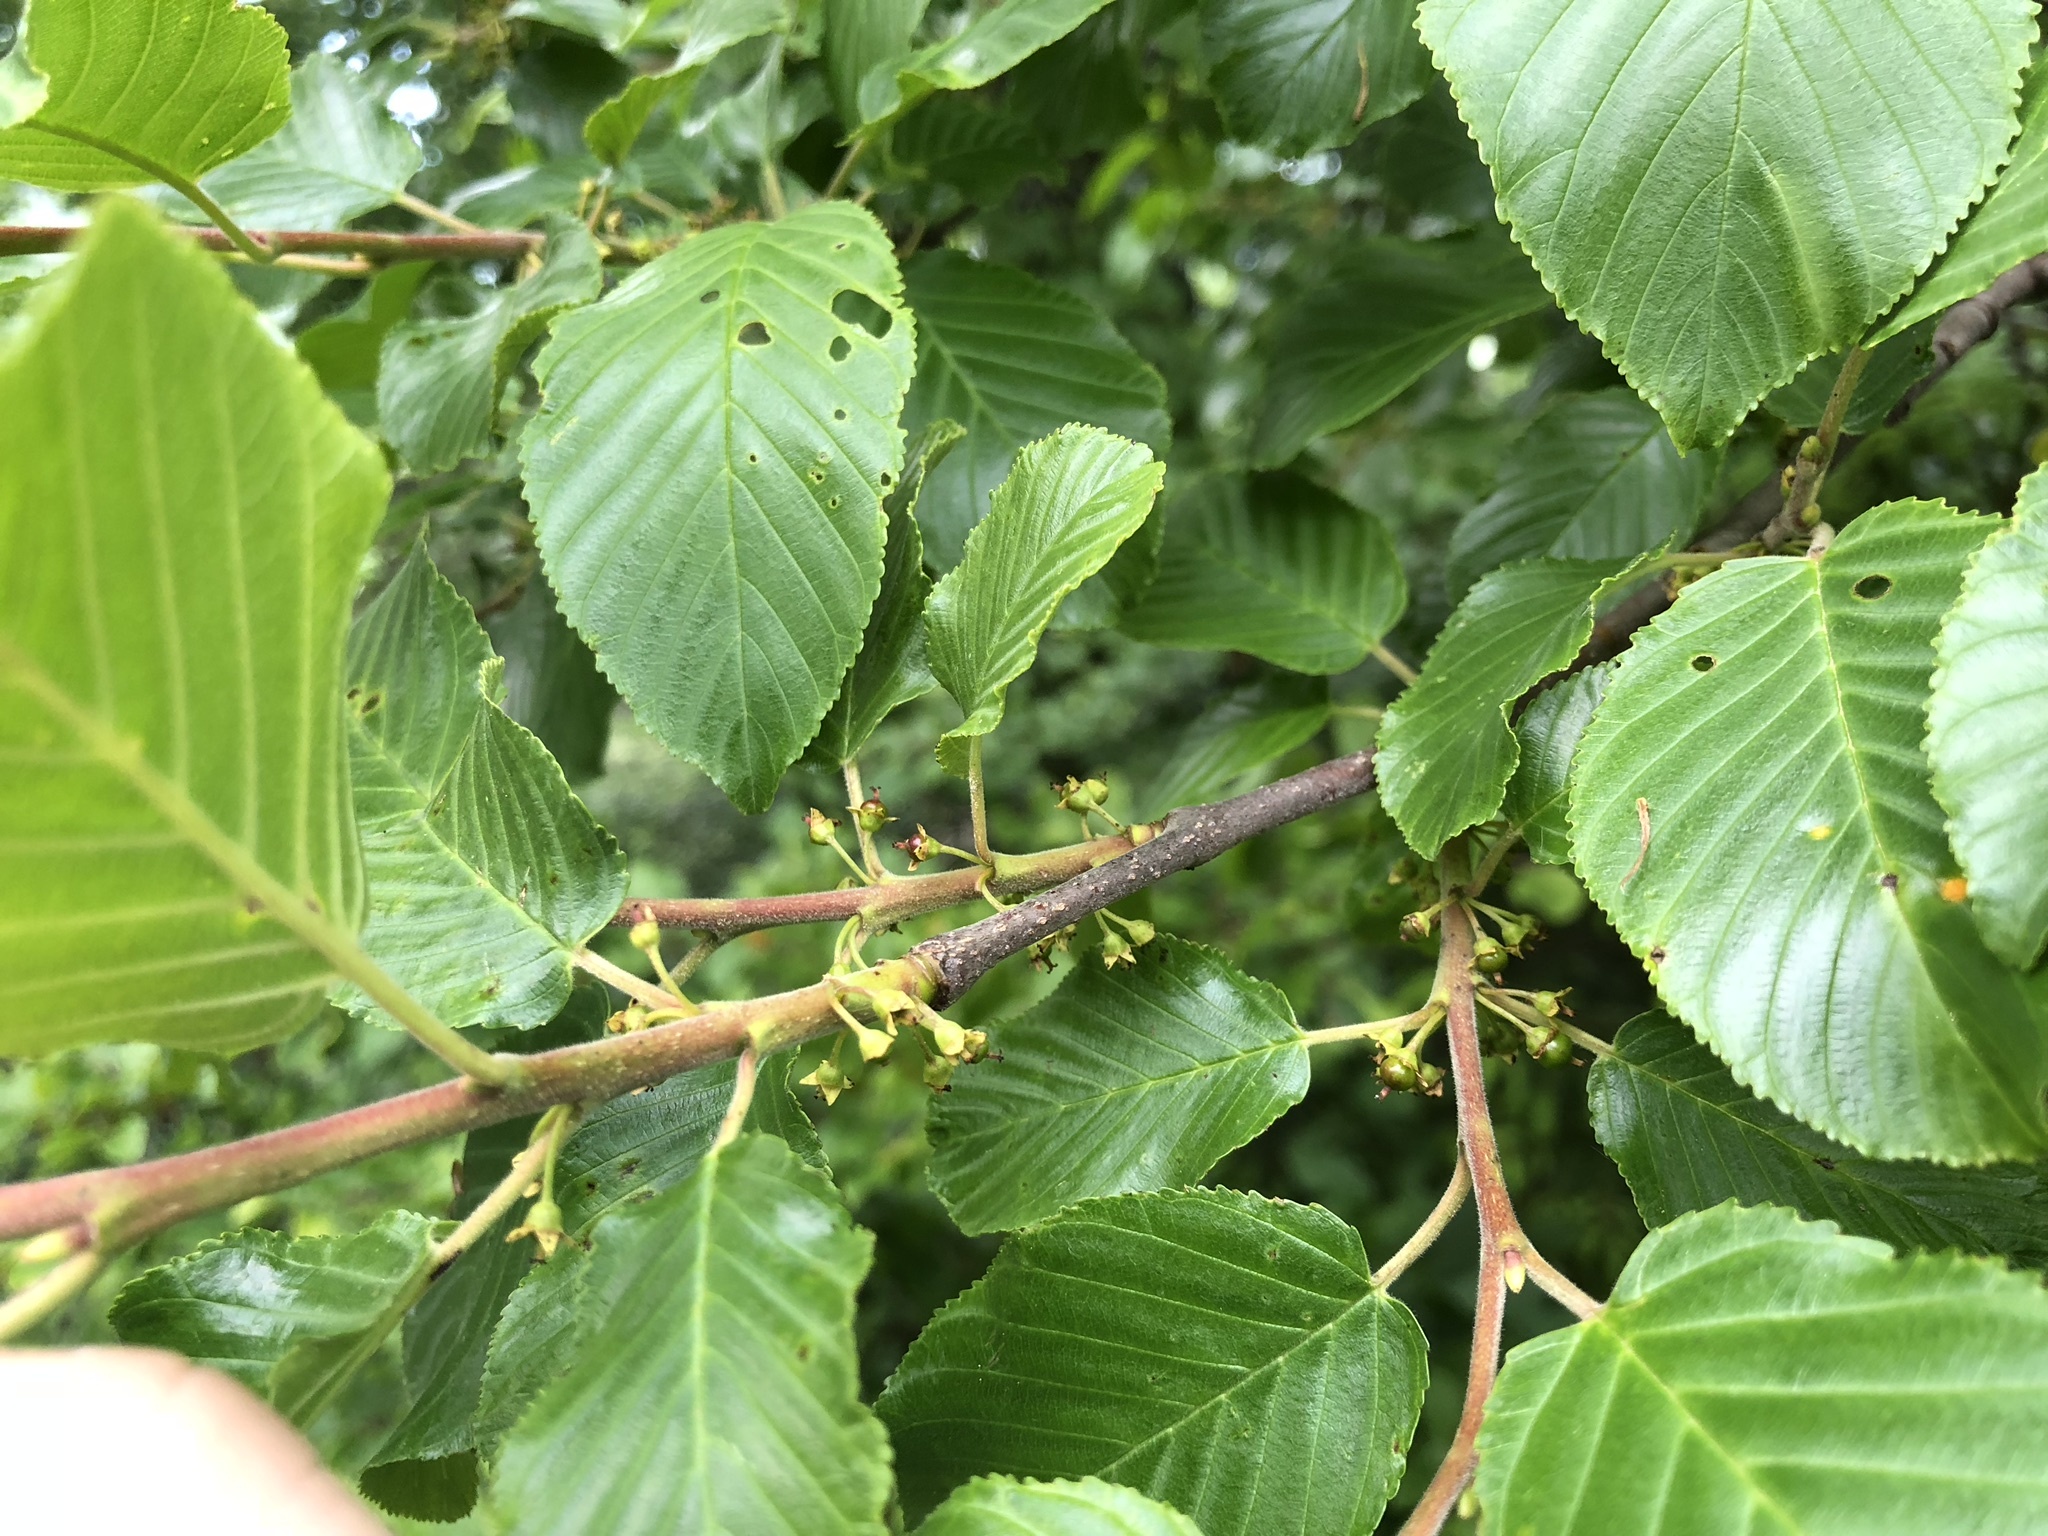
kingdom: Plantae
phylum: Tracheophyta
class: Magnoliopsida
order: Rosales
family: Rhamnaceae
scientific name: Rhamnaceae
